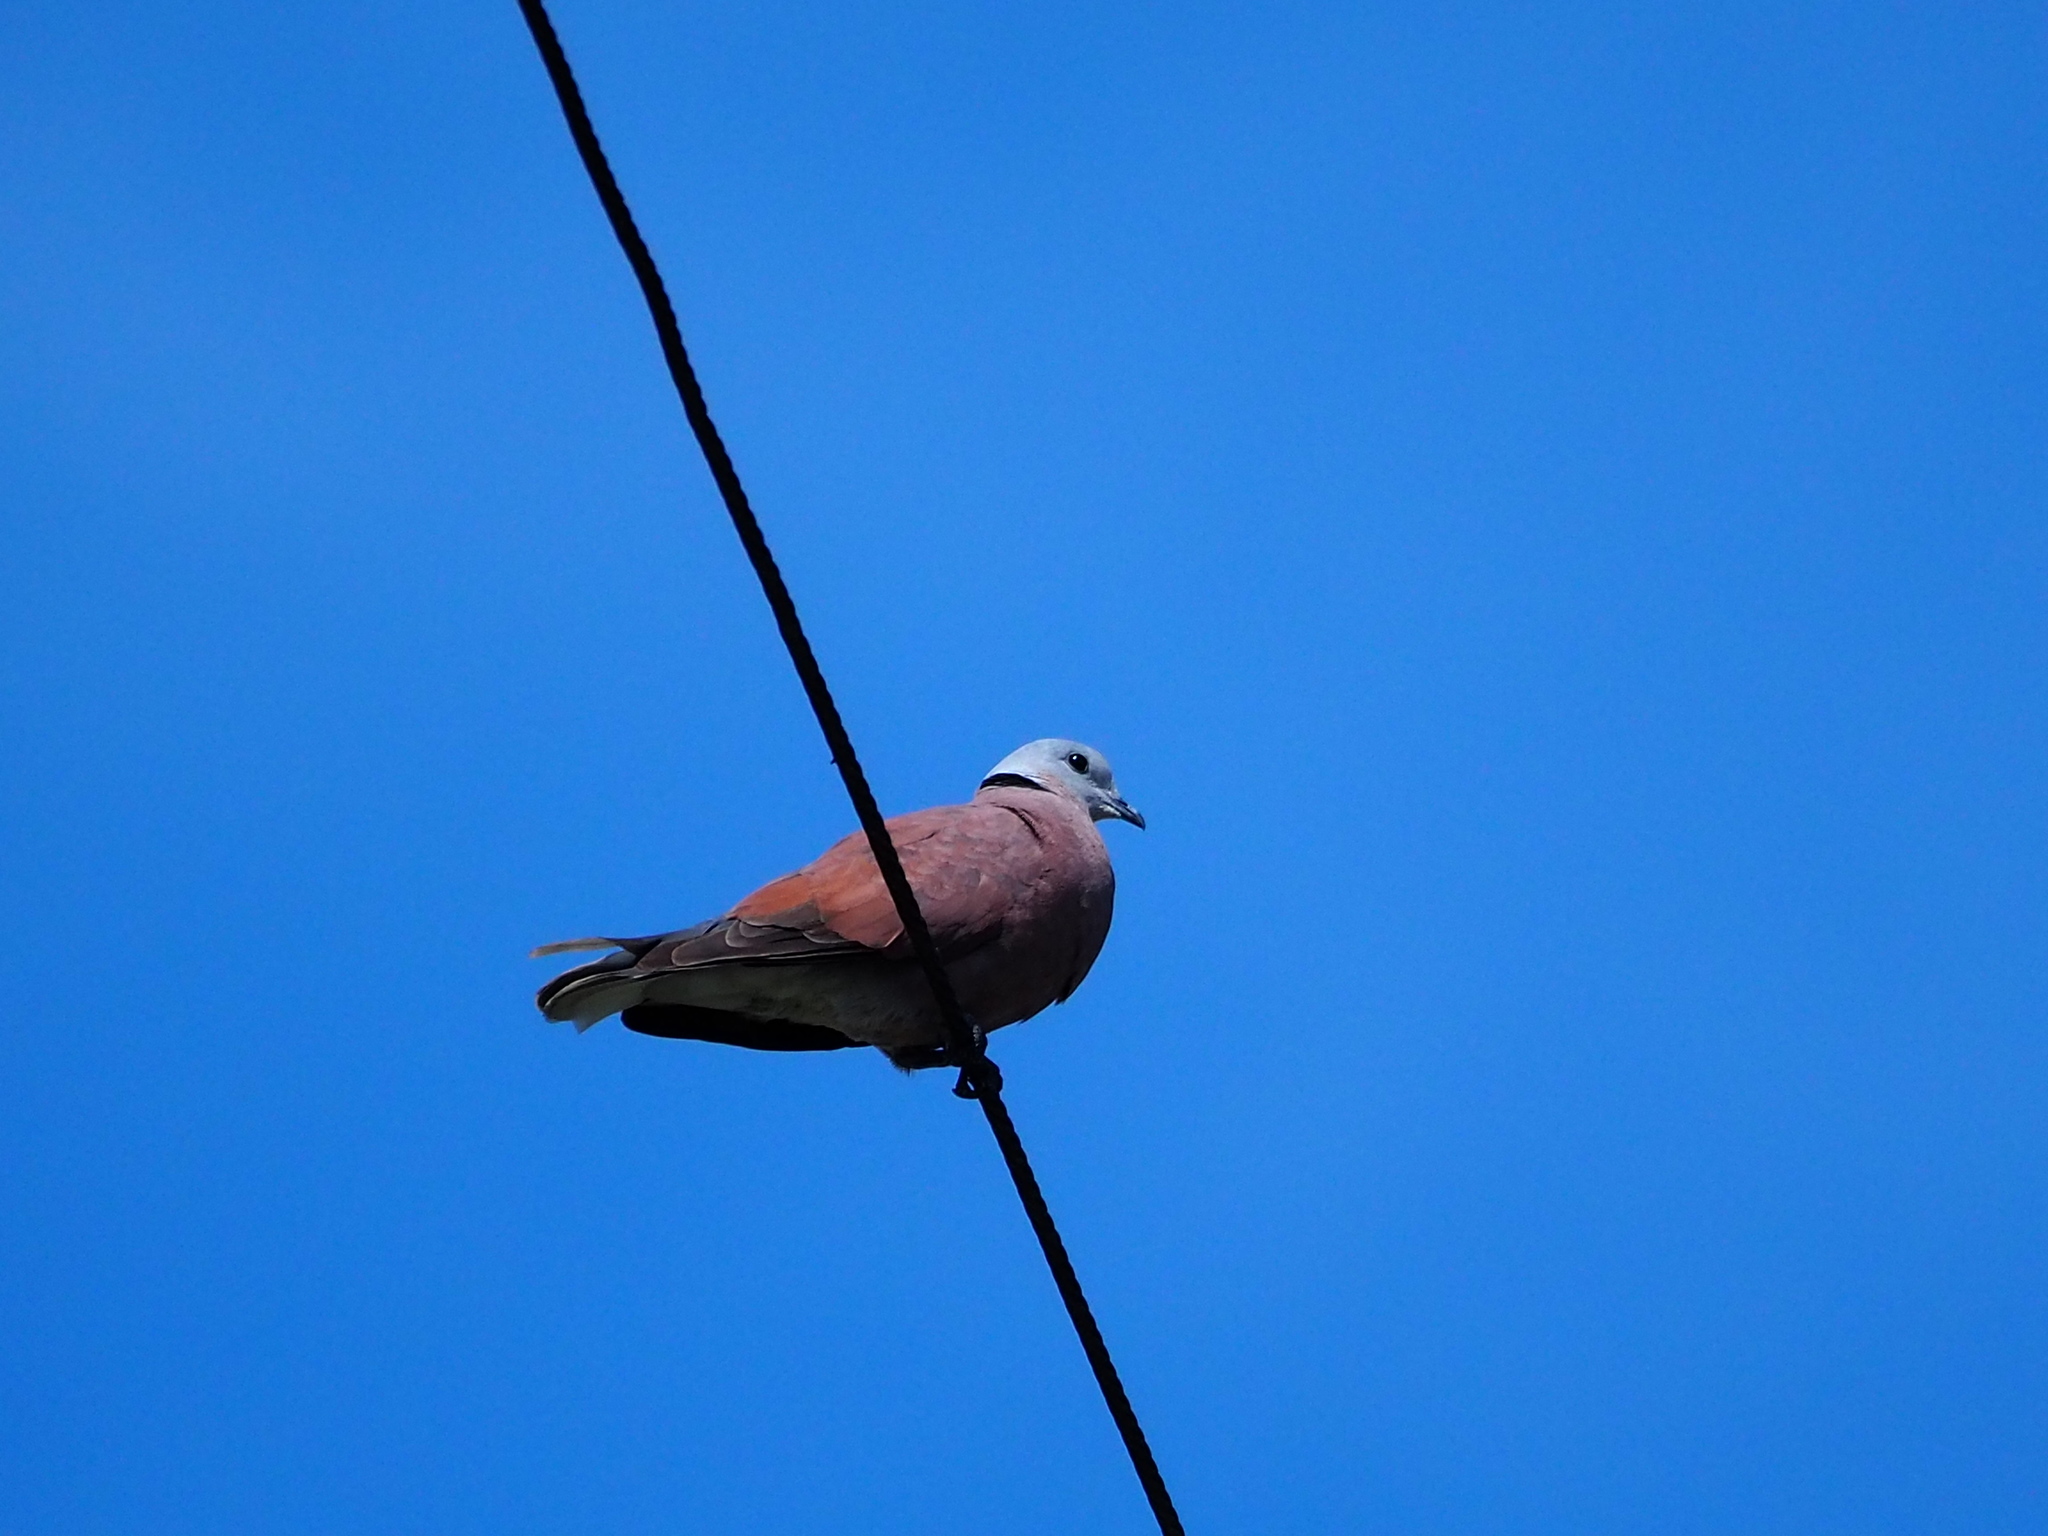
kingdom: Animalia
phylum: Chordata
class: Aves
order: Columbiformes
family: Columbidae
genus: Streptopelia
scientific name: Streptopelia tranquebarica
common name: Red turtle dove
